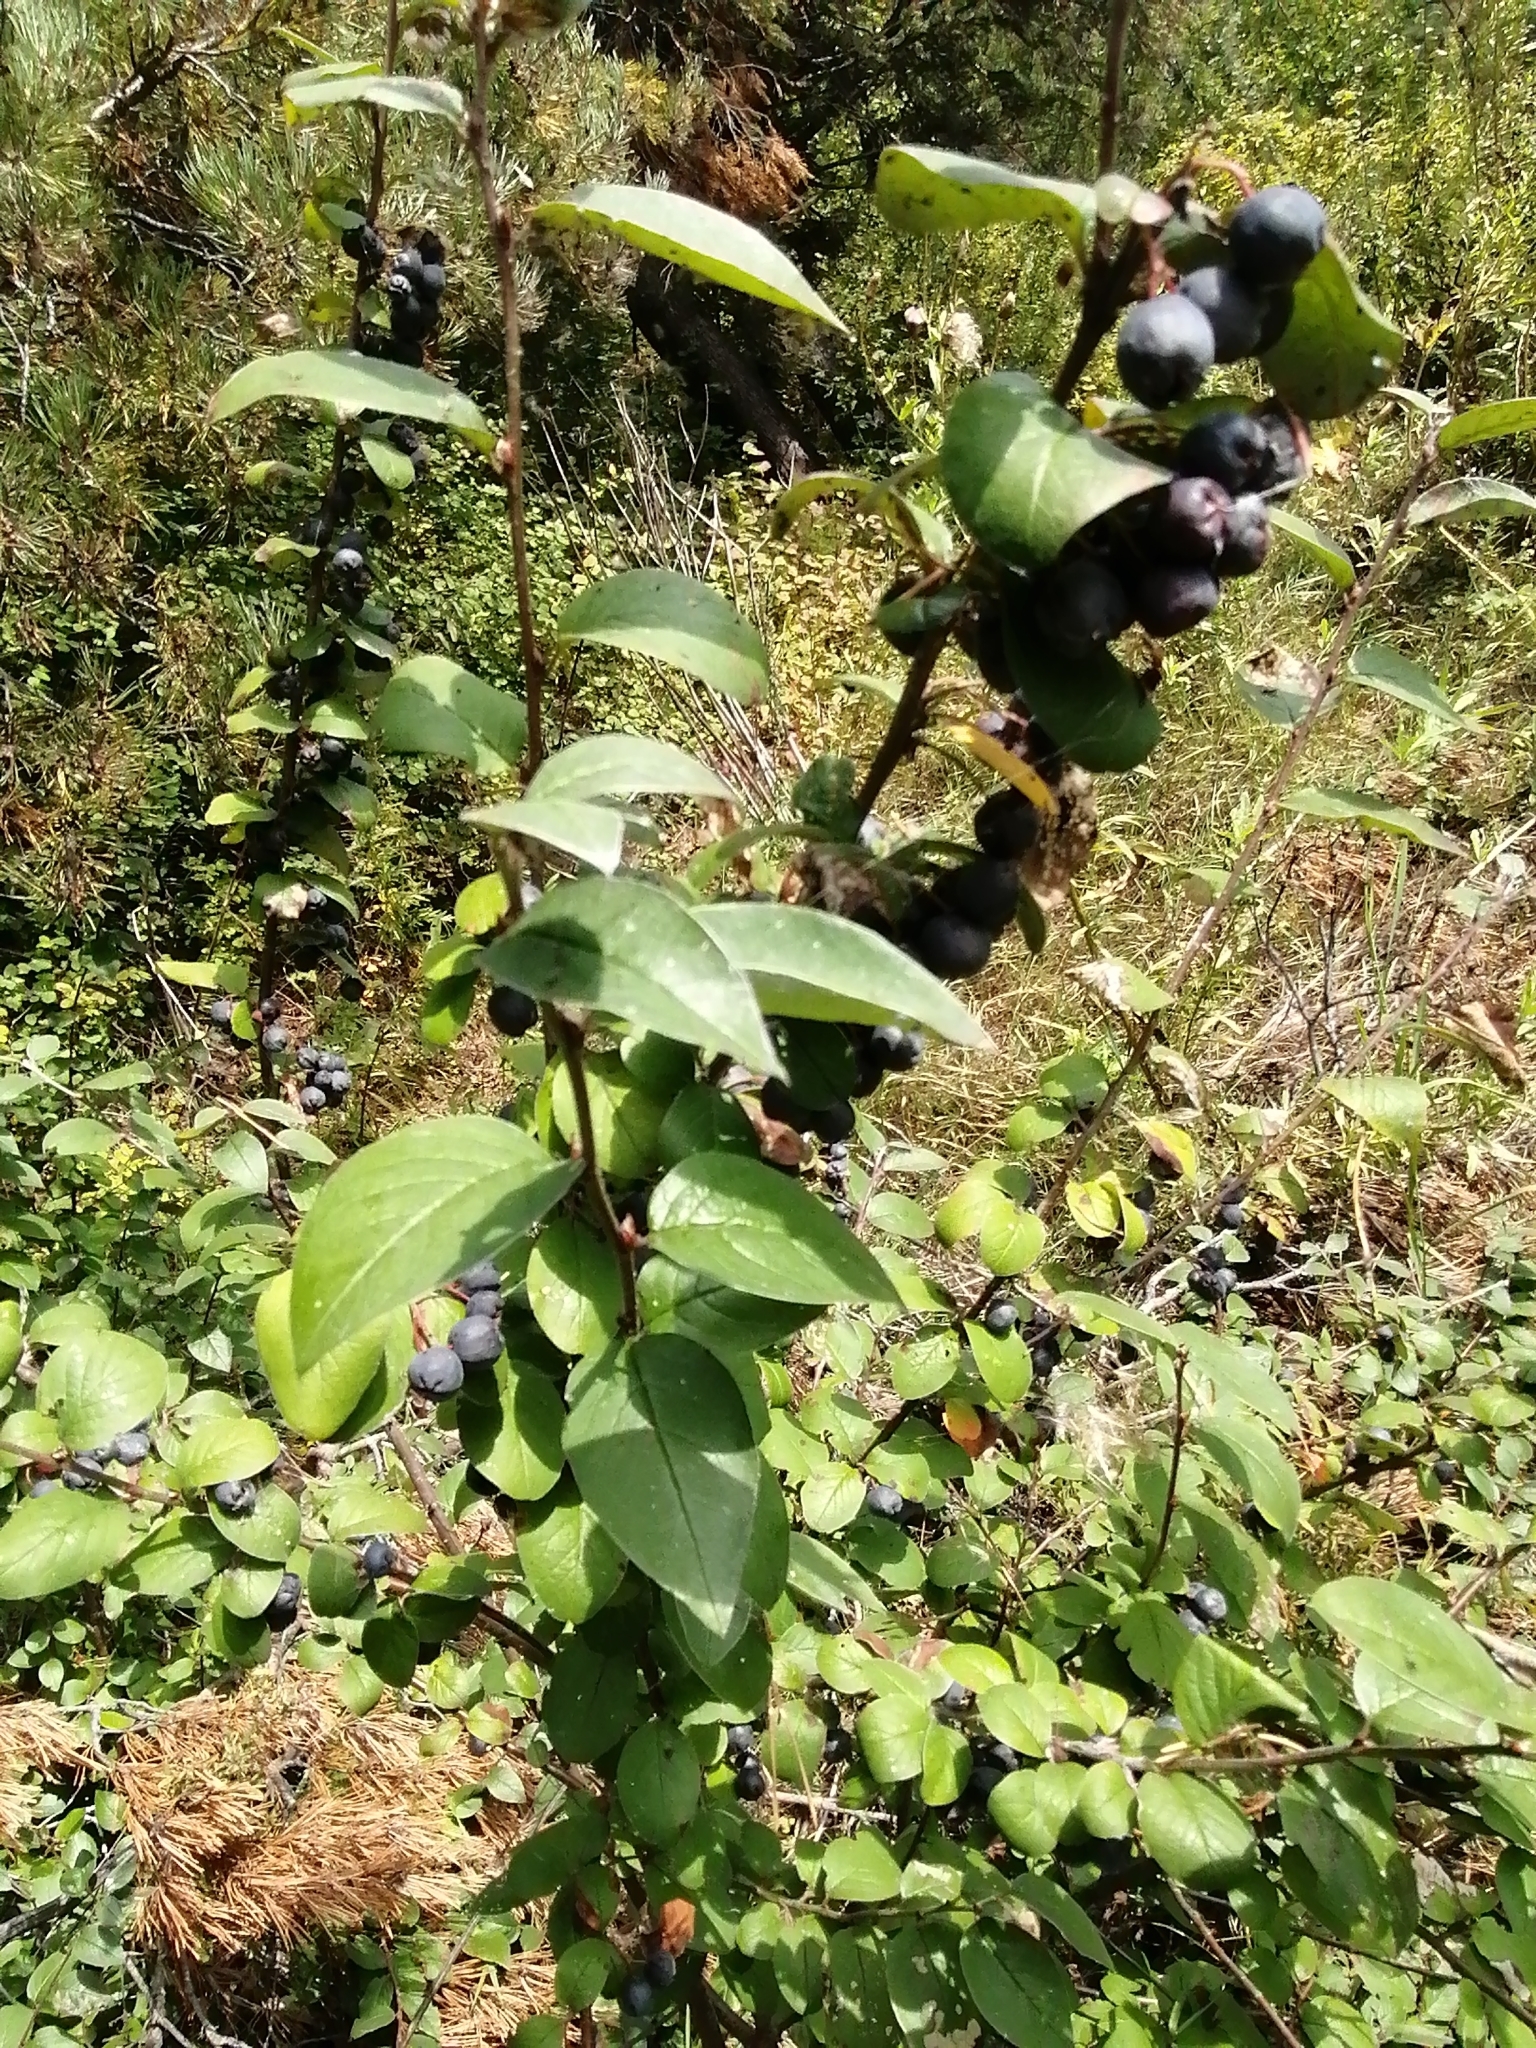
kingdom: Plantae
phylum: Tracheophyta
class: Magnoliopsida
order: Rosales
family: Rosaceae
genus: Cotoneaster
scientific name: Cotoneaster melanocarpus
